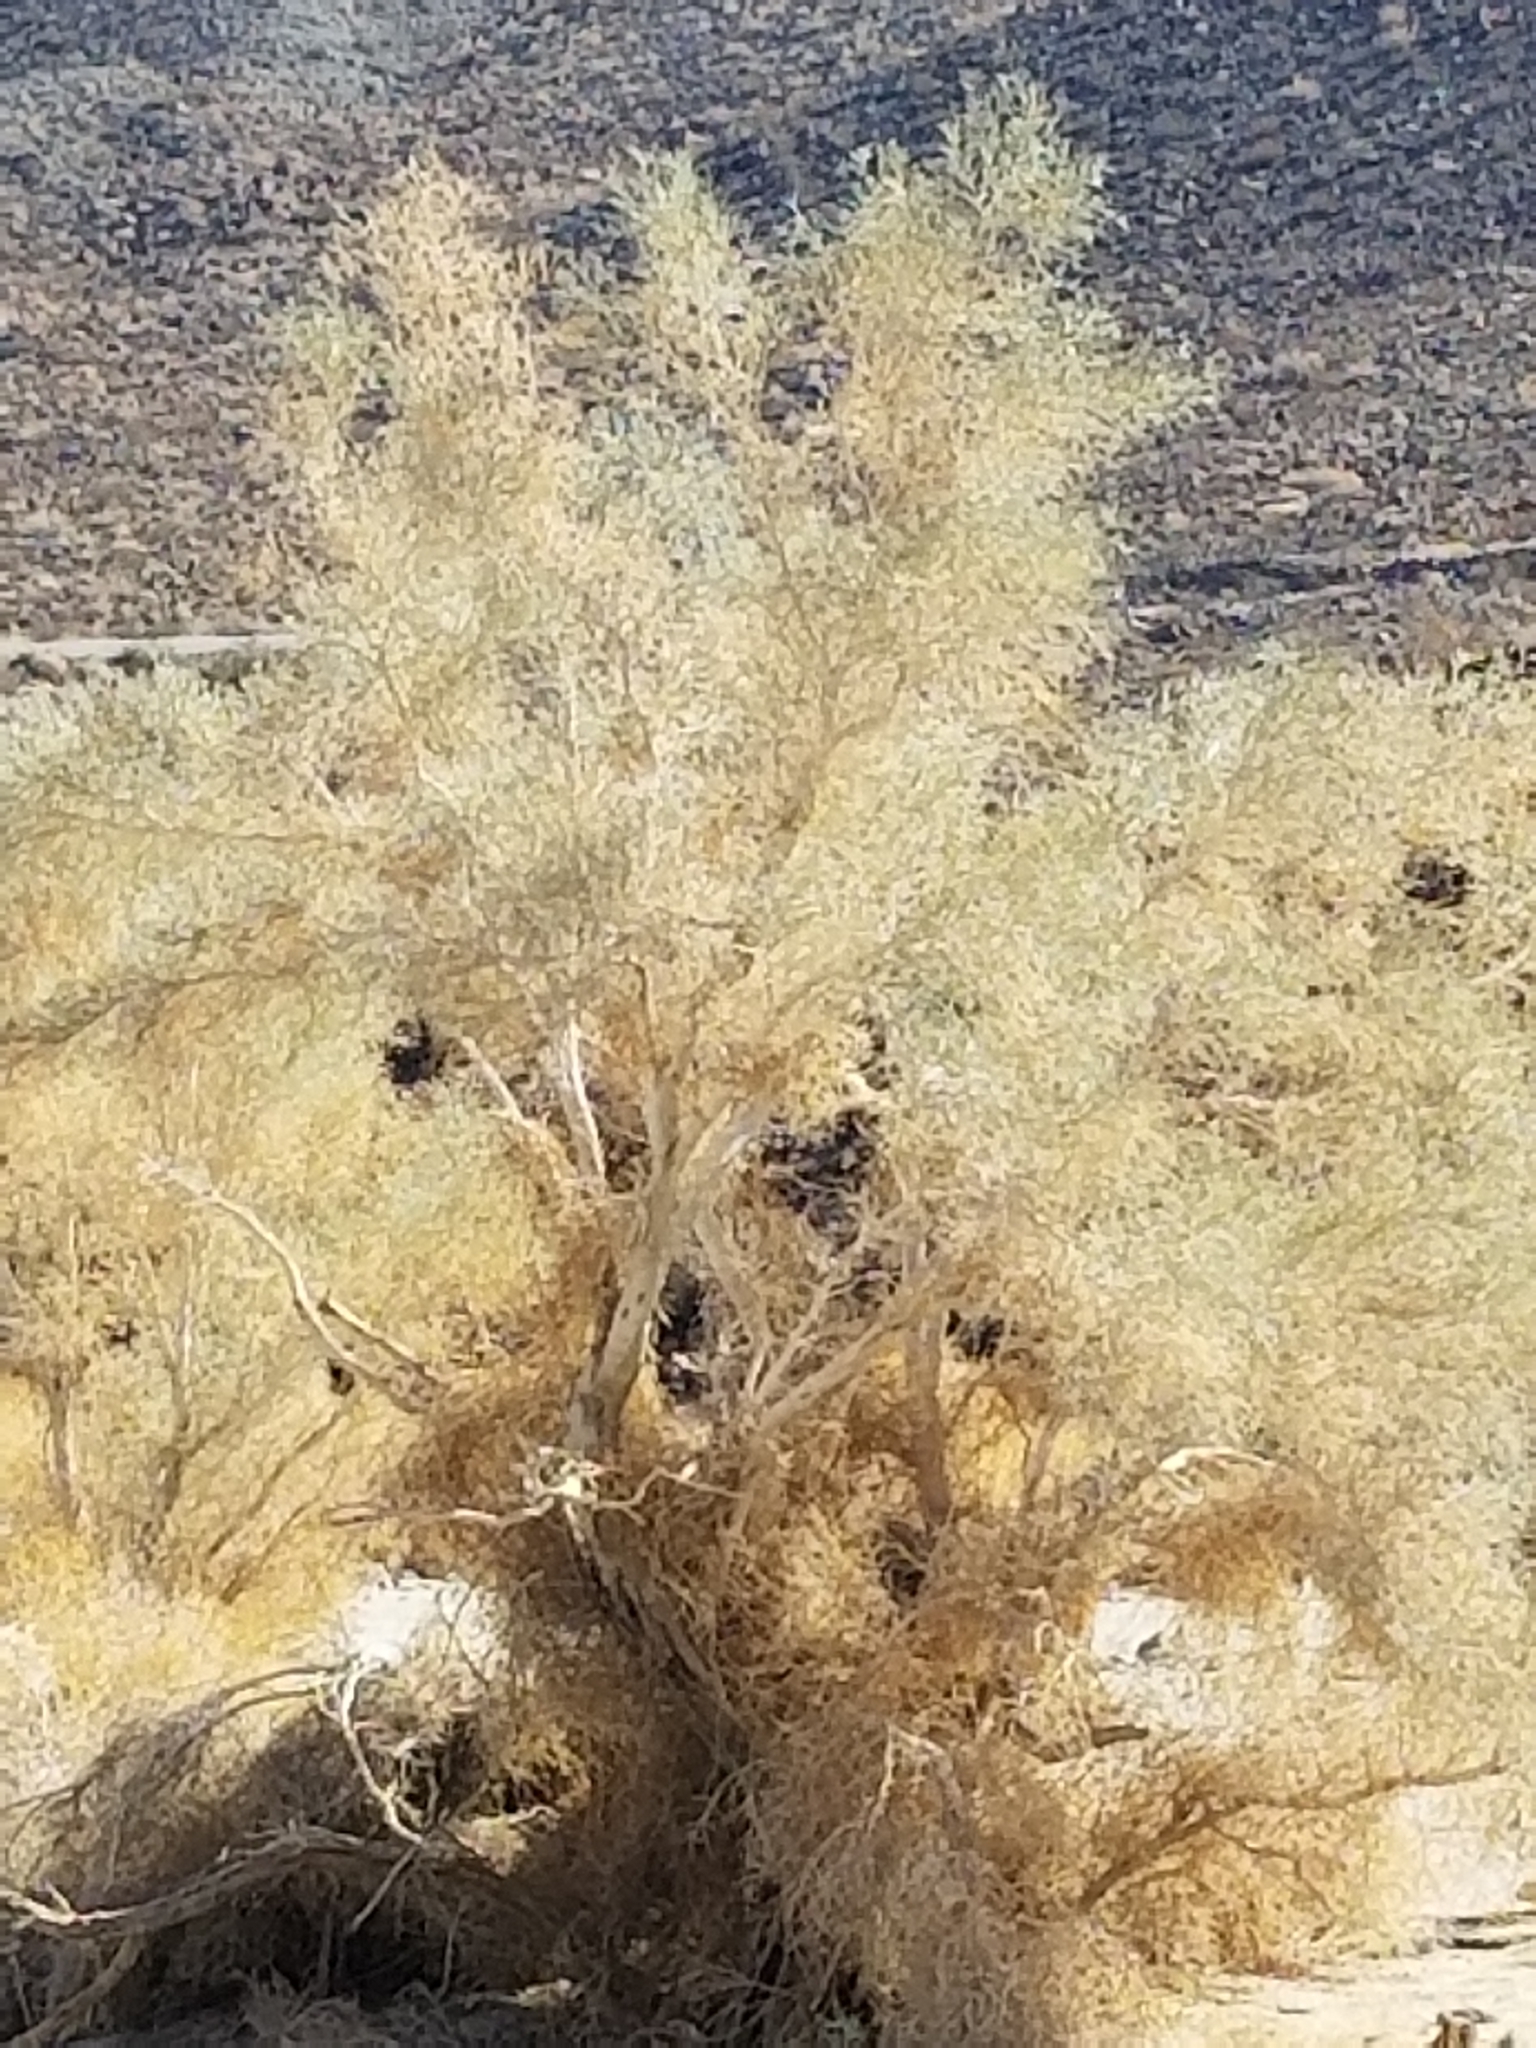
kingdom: Plantae
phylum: Tracheophyta
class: Magnoliopsida
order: Fabales
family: Fabaceae
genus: Psorothamnus
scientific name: Psorothamnus spinosus
